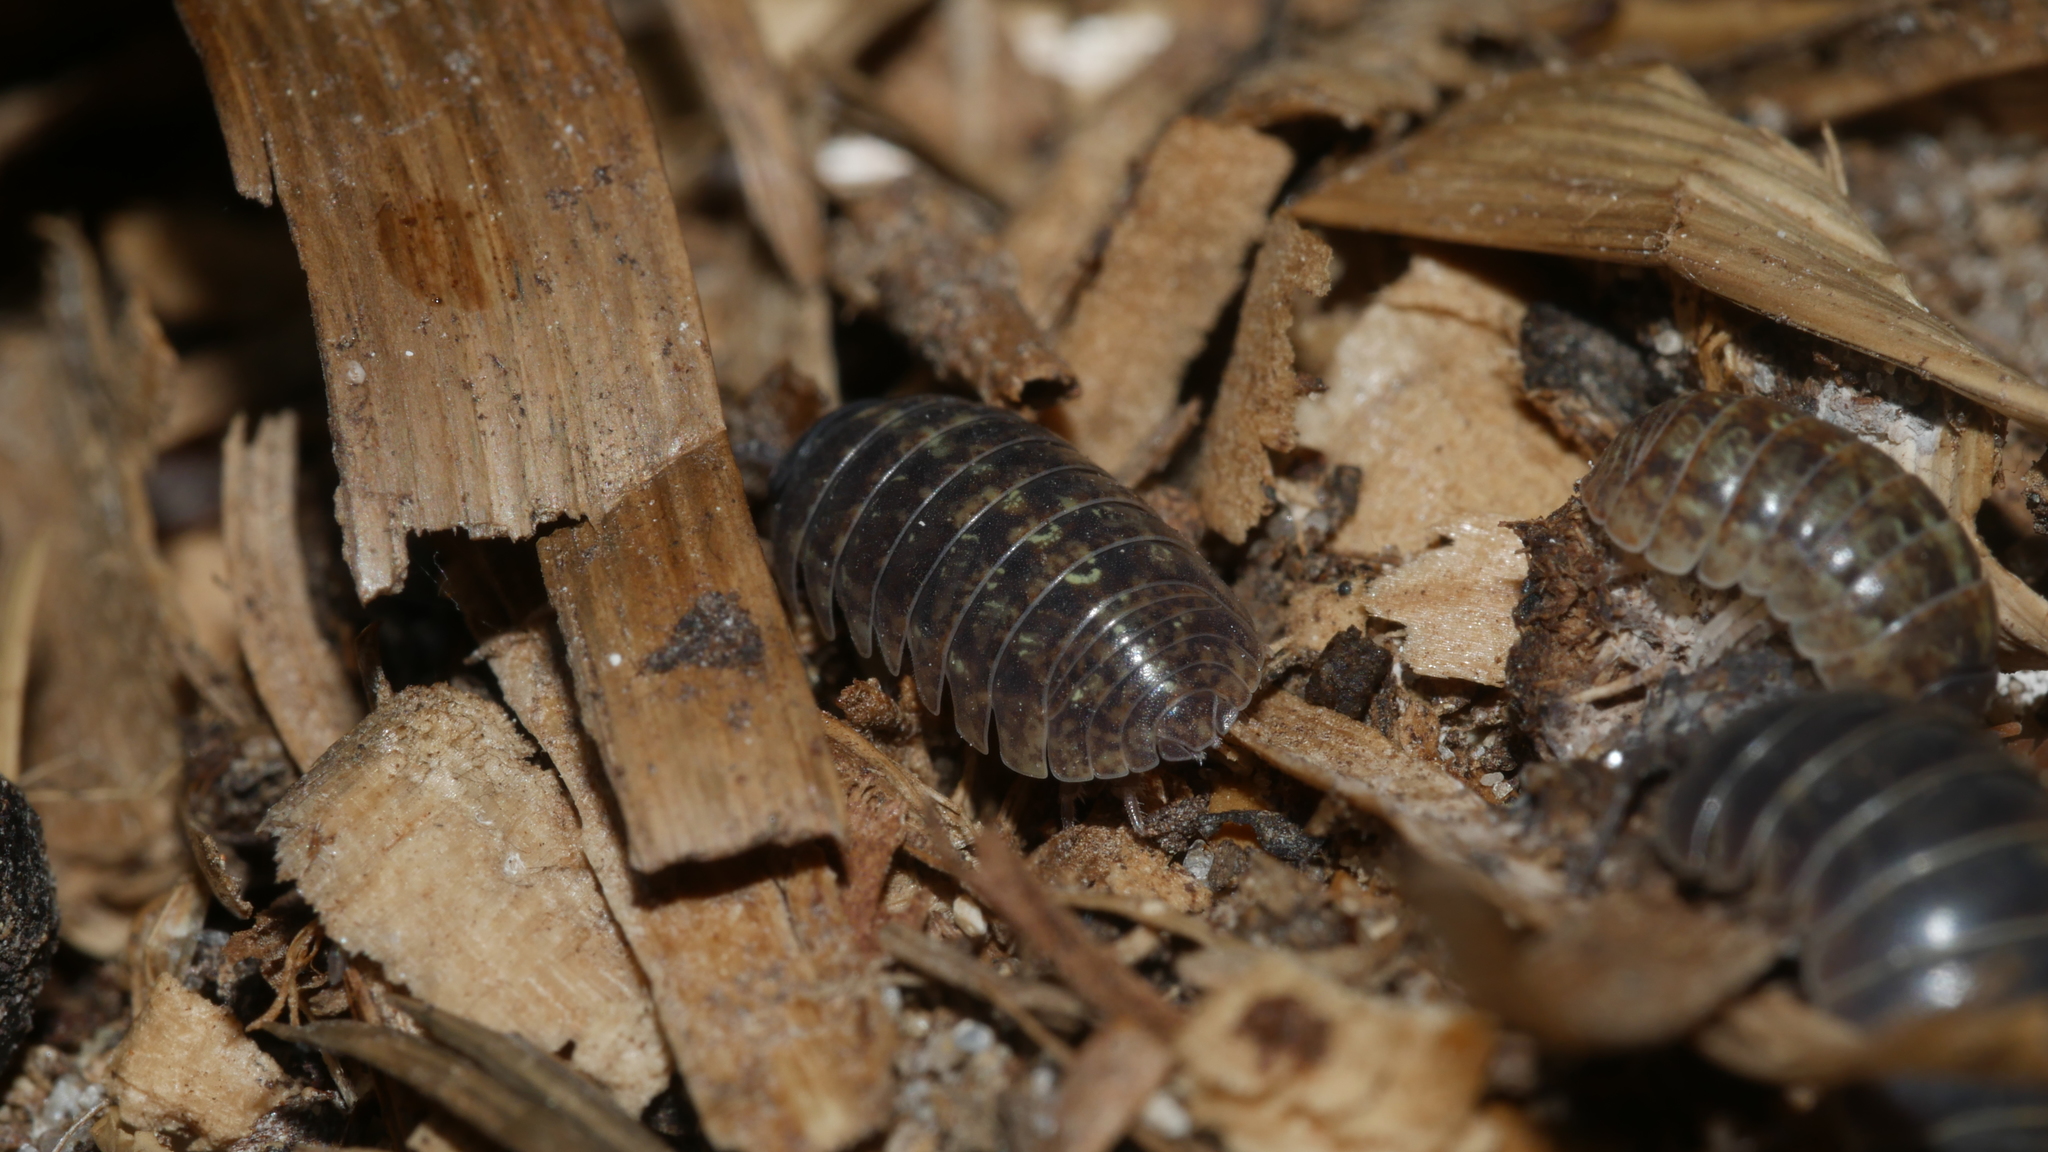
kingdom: Animalia
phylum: Arthropoda
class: Malacostraca
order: Isopoda
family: Armadillidiidae
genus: Armadillidium
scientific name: Armadillidium vulgare
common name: Common pill woodlouse
